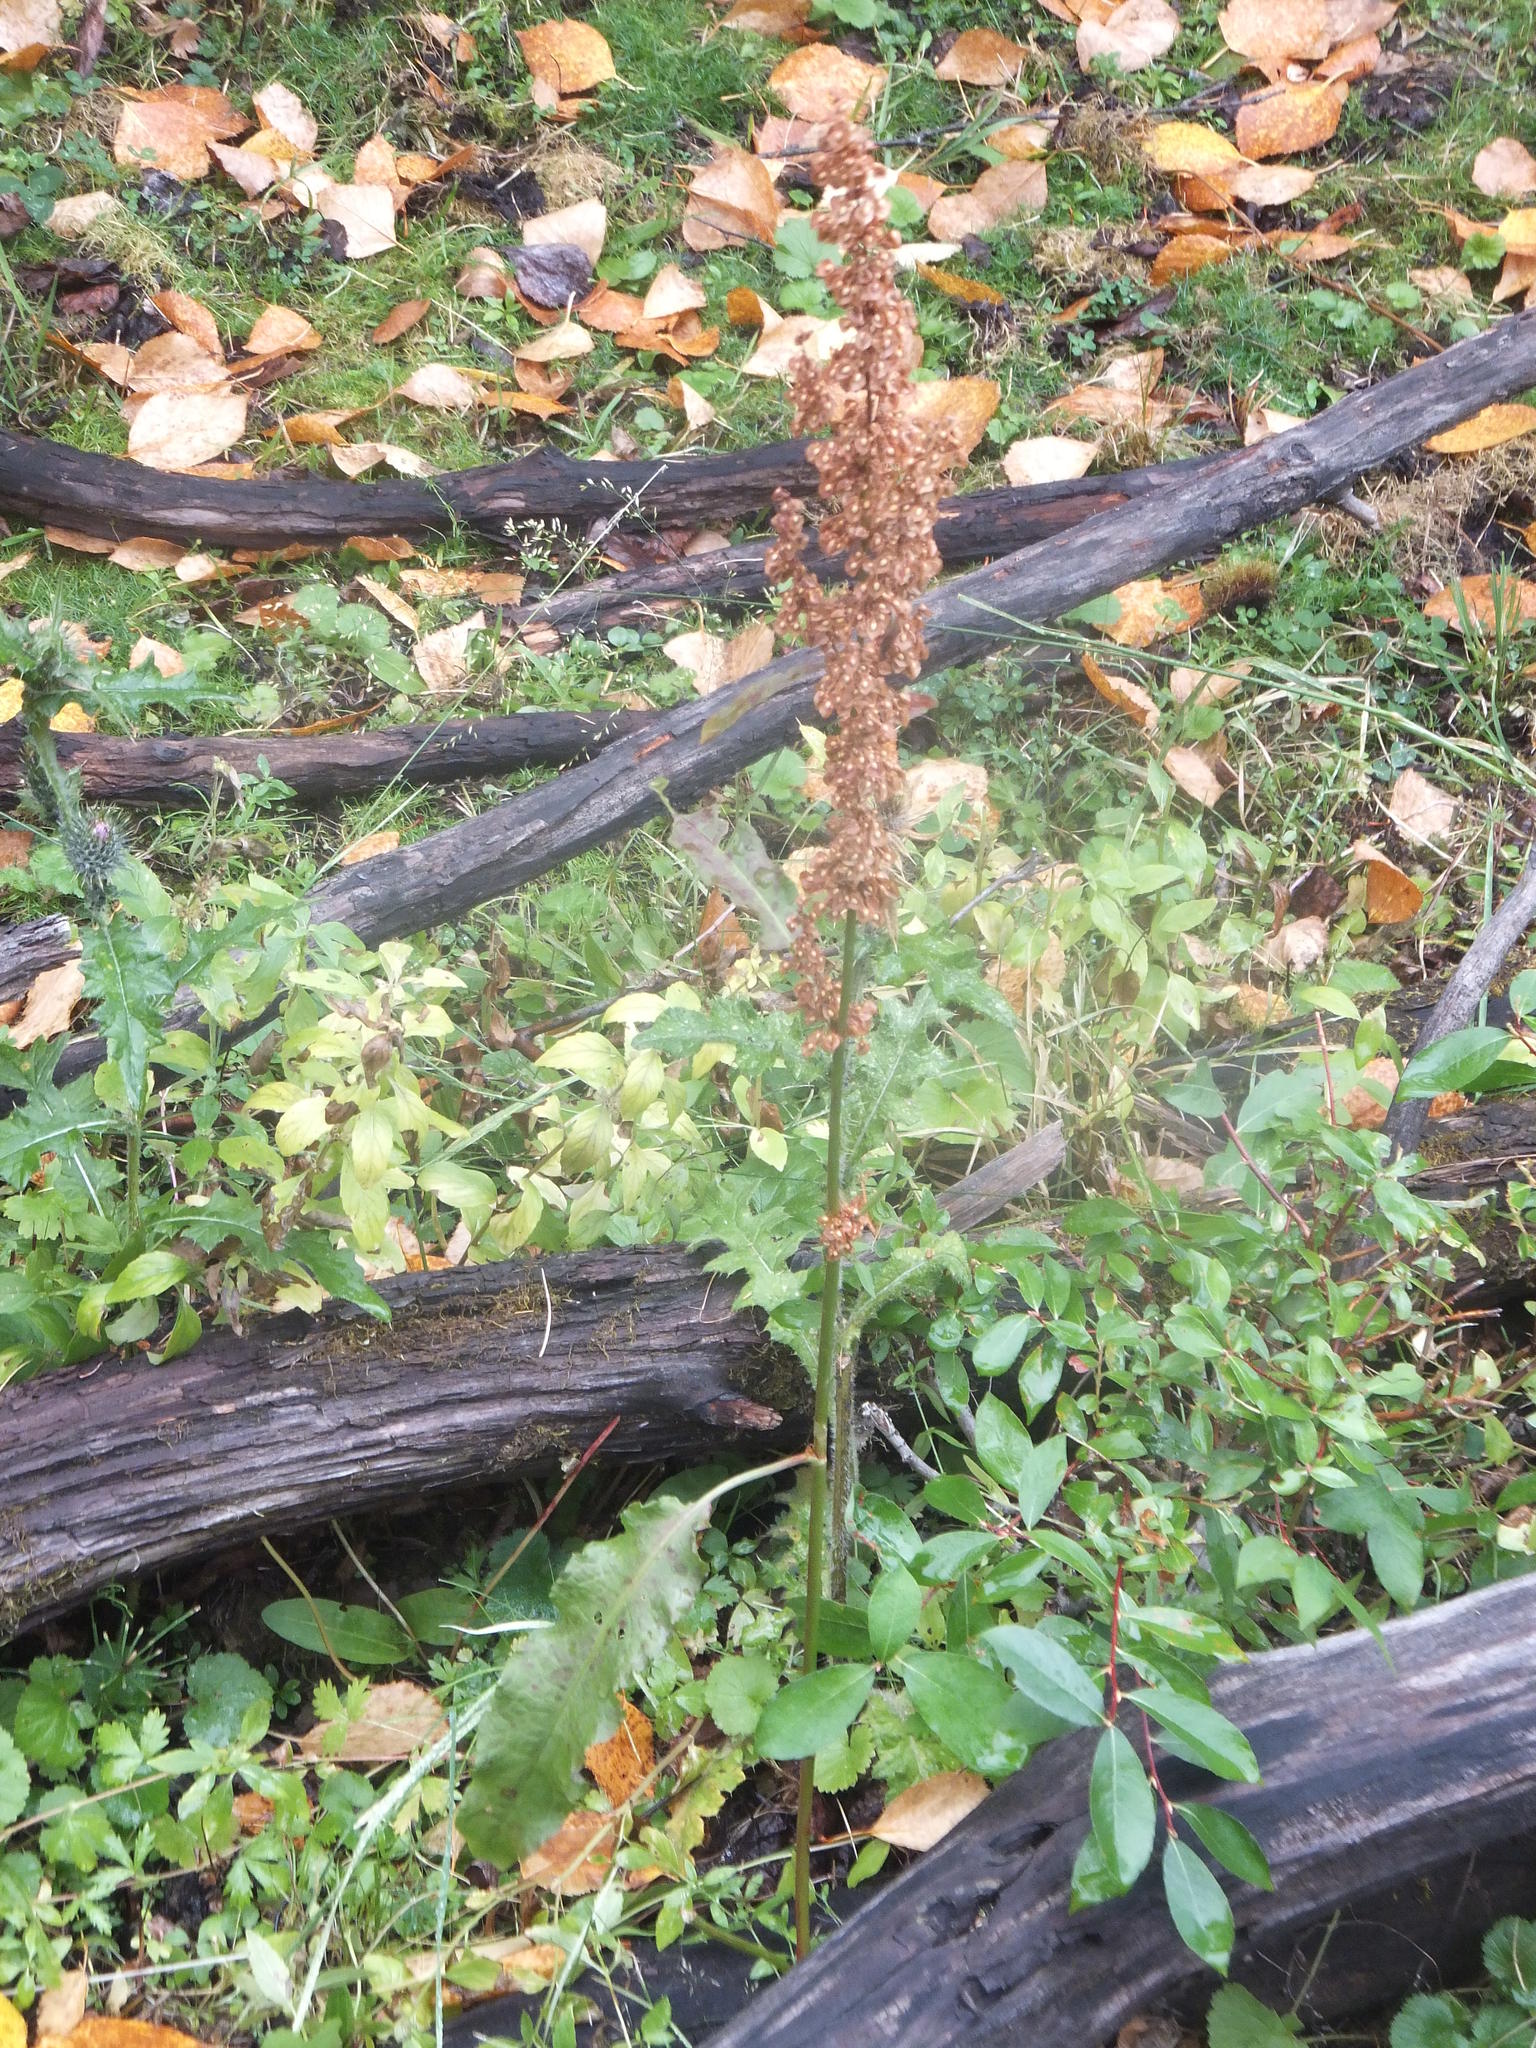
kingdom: Plantae
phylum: Tracheophyta
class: Magnoliopsida
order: Caryophyllales
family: Polygonaceae
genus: Rumex
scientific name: Rumex crispus
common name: Curled dock
